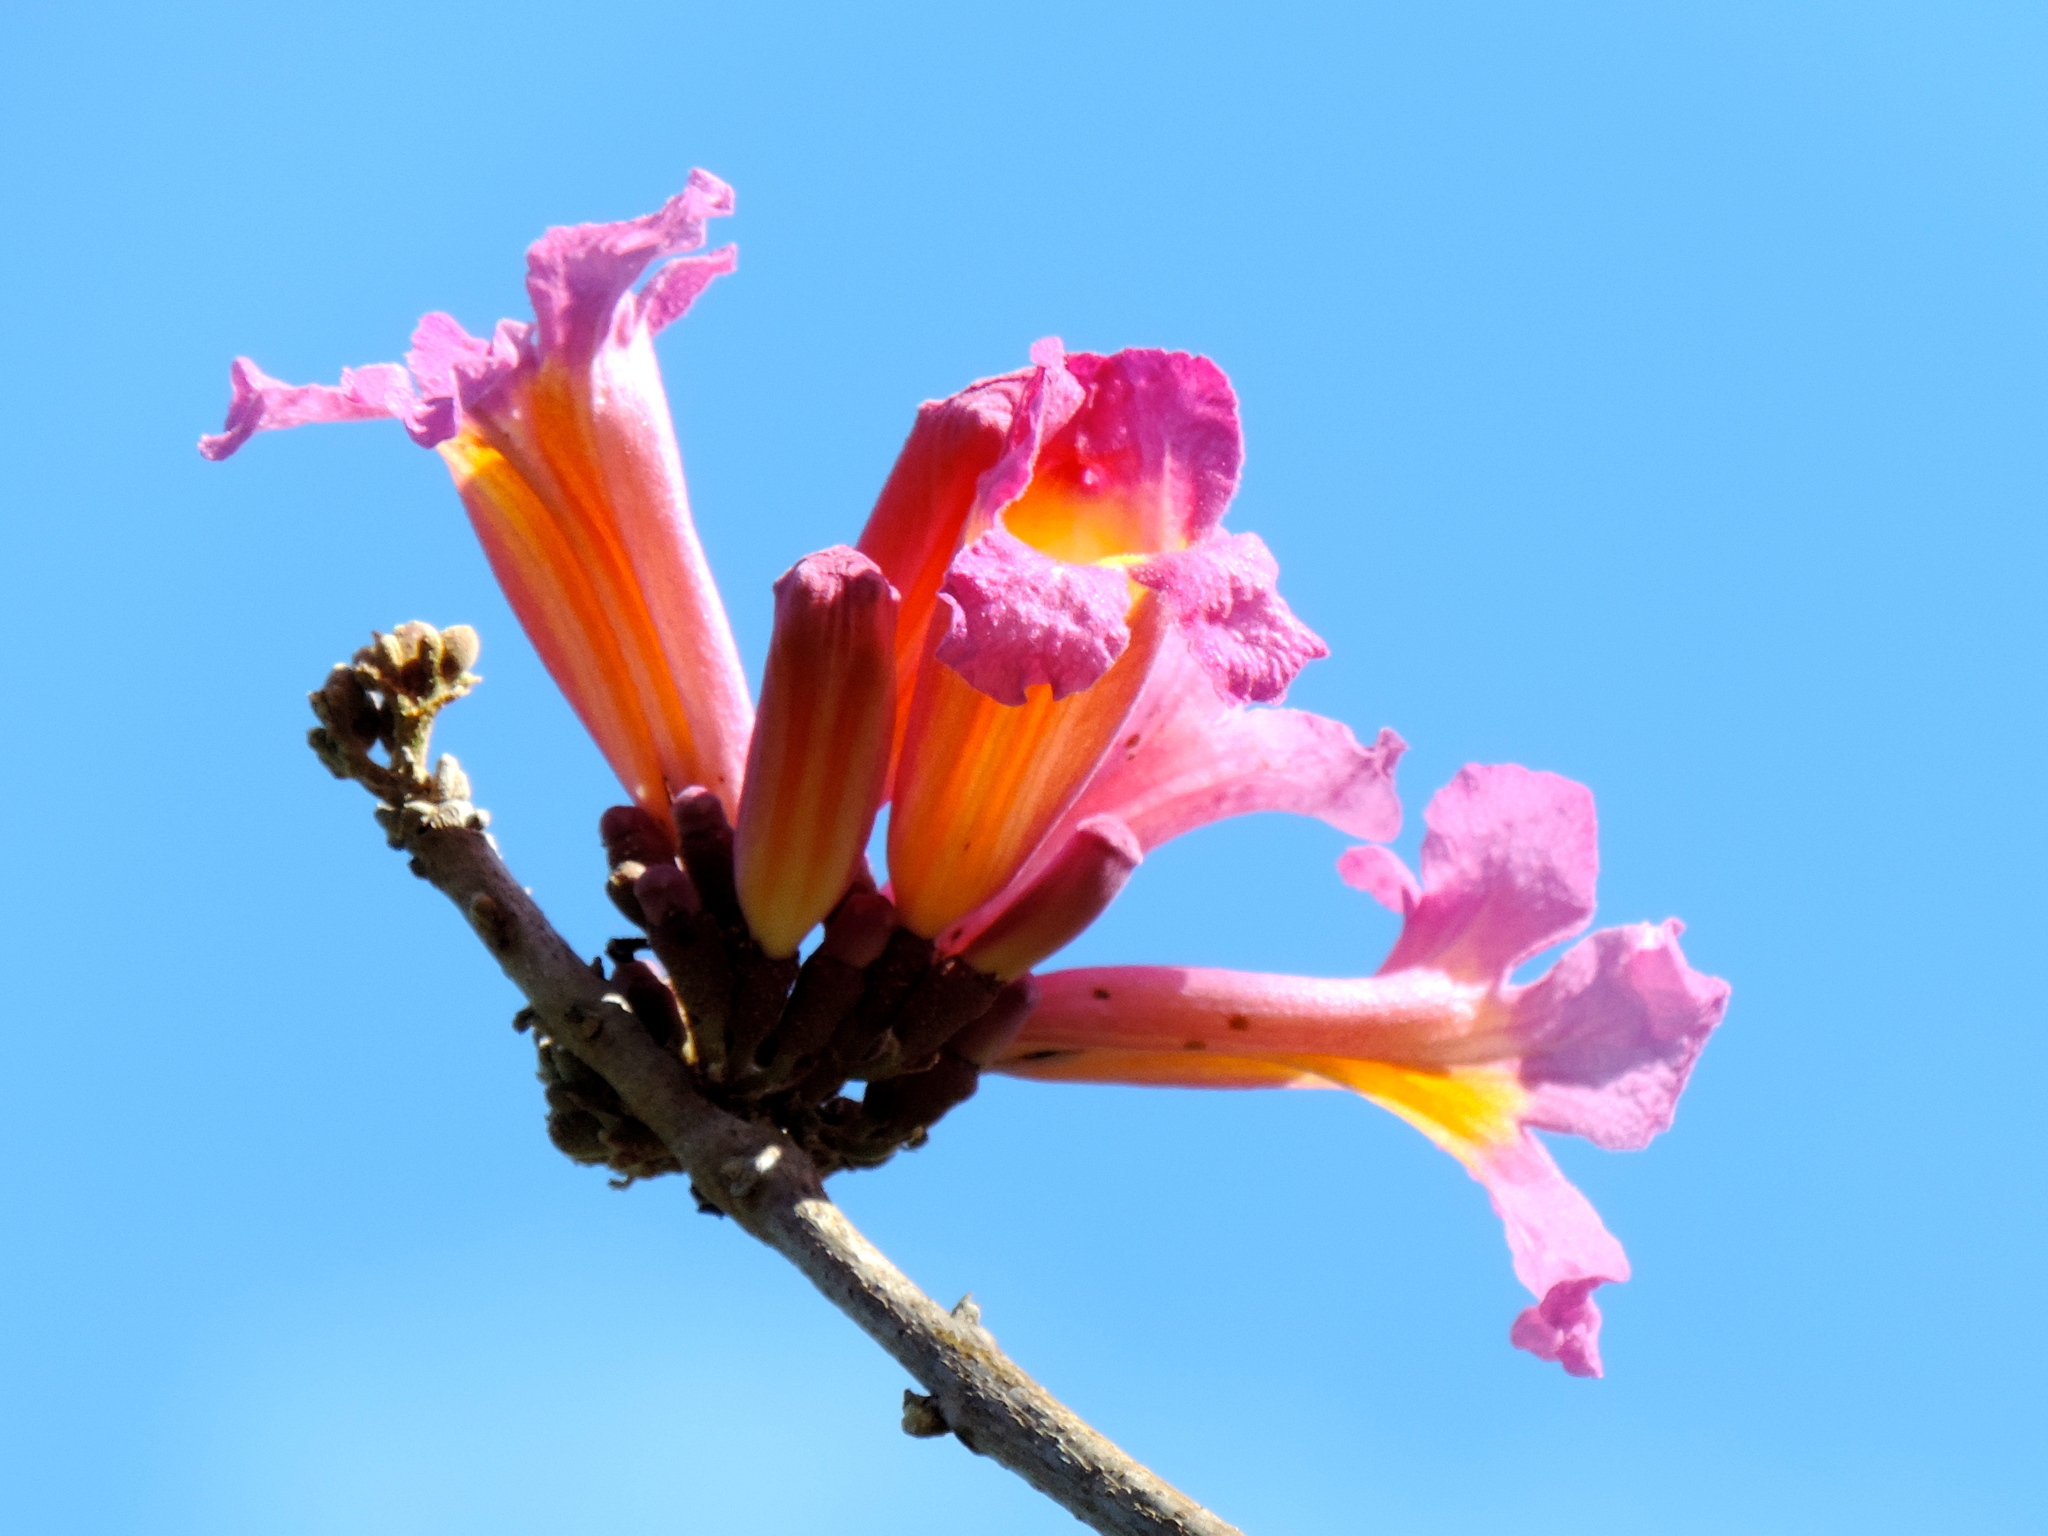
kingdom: Plantae
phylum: Tracheophyta
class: Magnoliopsida
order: Lamiales
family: Bignoniaceae
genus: Handroanthus
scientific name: Handroanthus impetiginosum
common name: Pink trumpet tree
